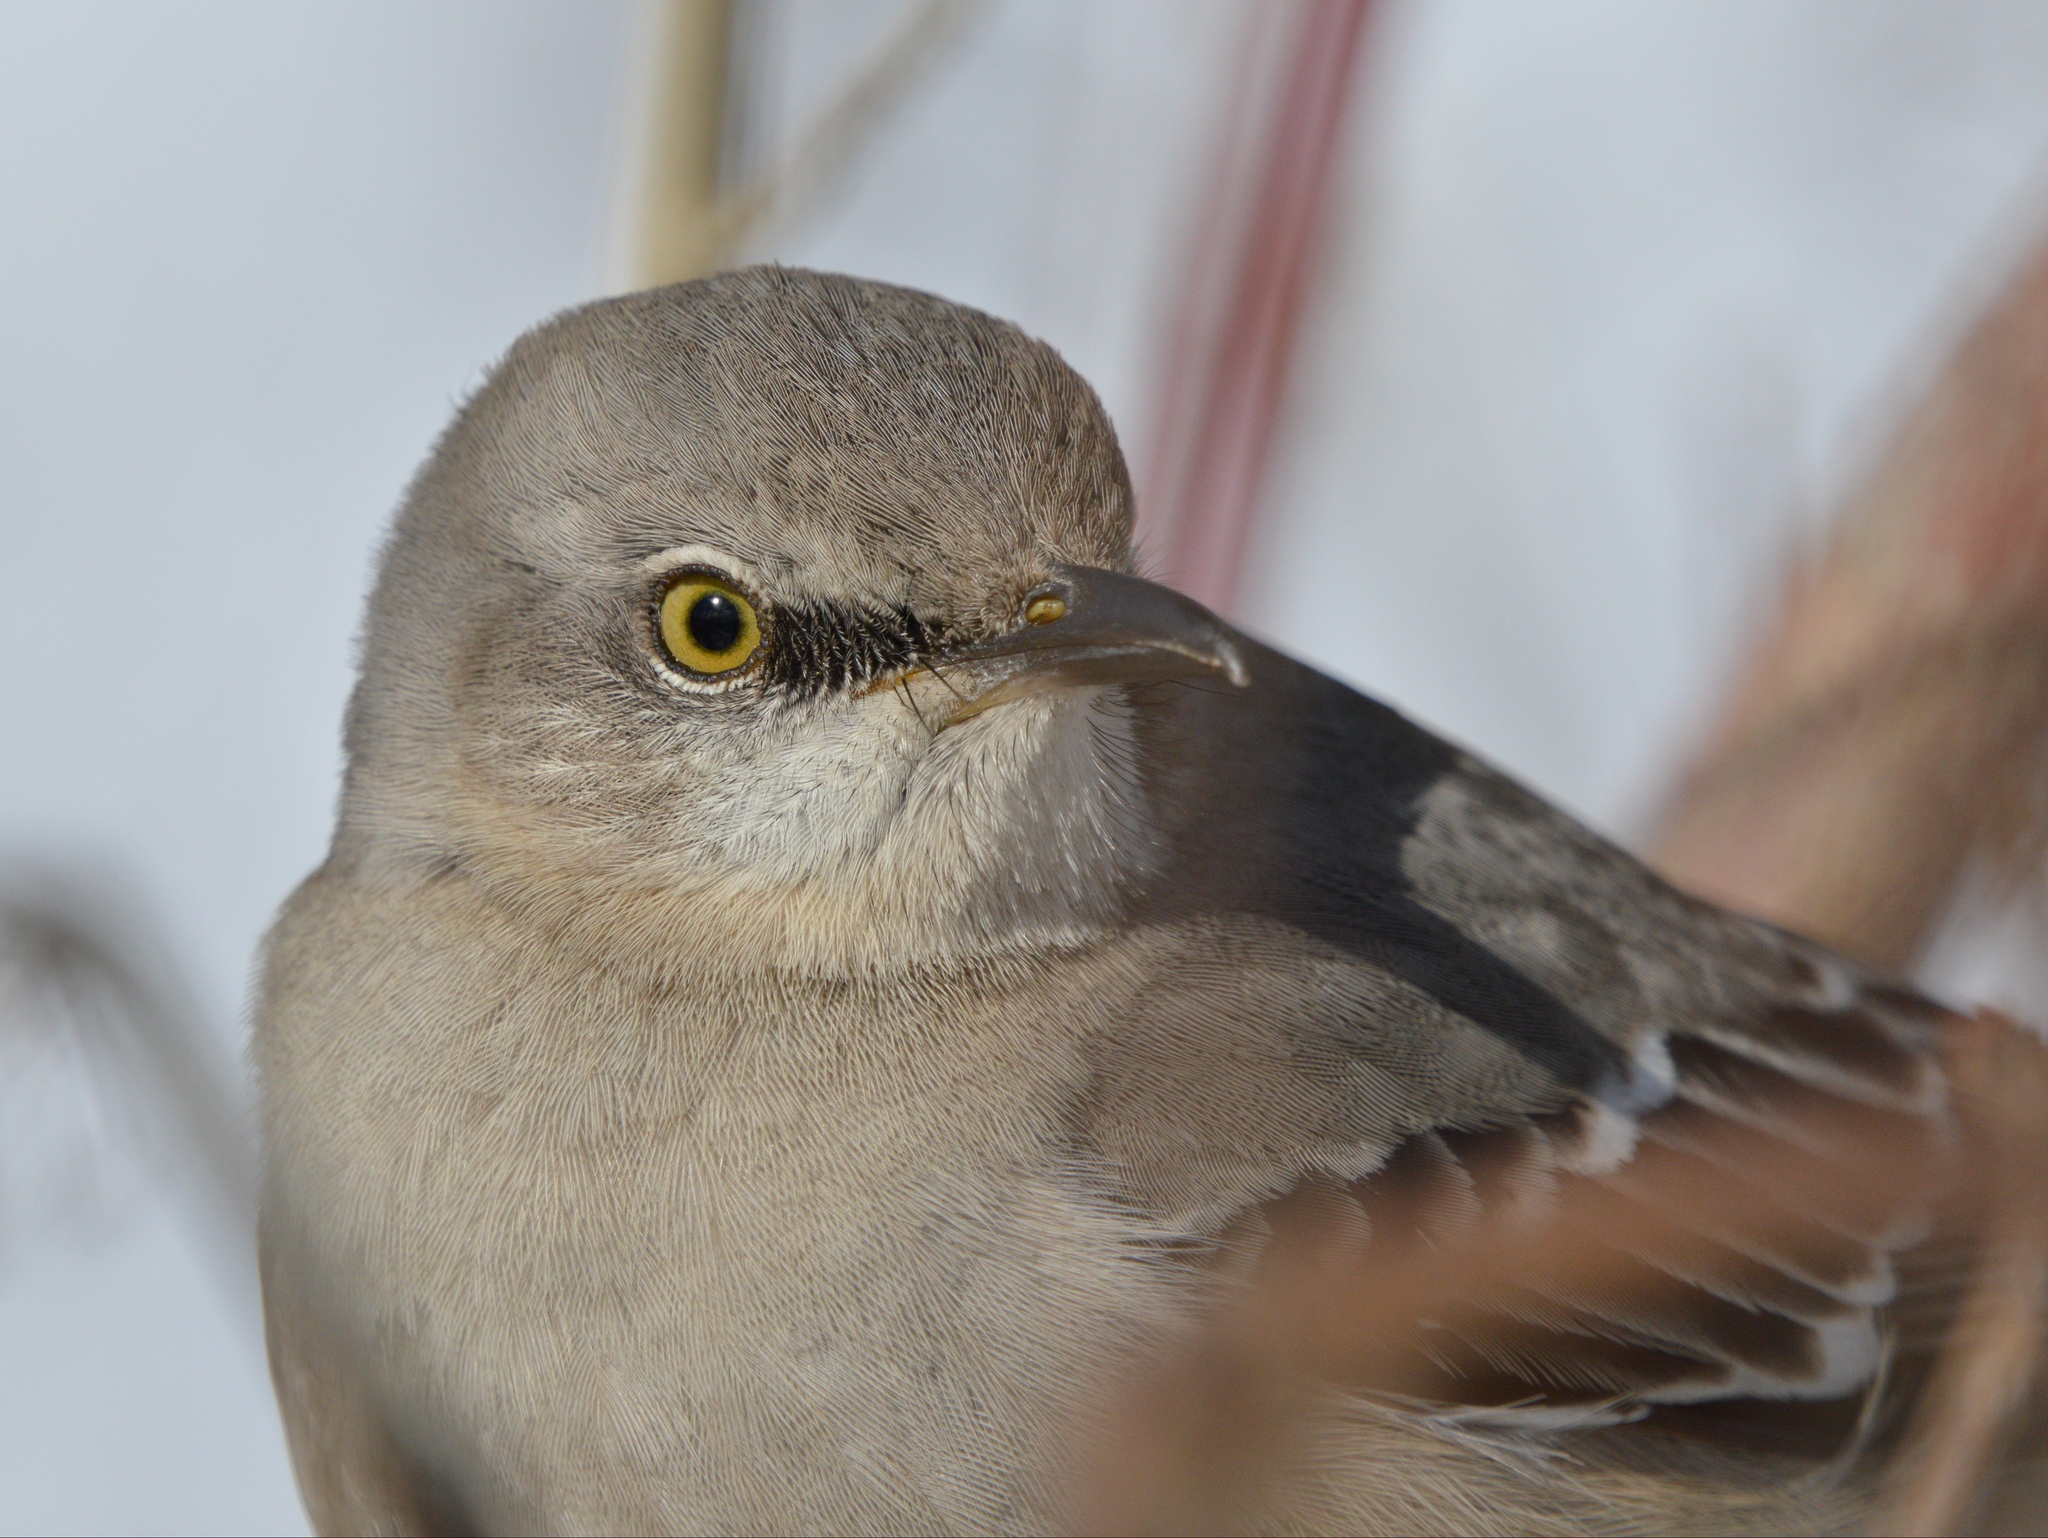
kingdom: Animalia
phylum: Chordata
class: Aves
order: Passeriformes
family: Mimidae
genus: Mimus
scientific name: Mimus polyglottos
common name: Northern mockingbird
